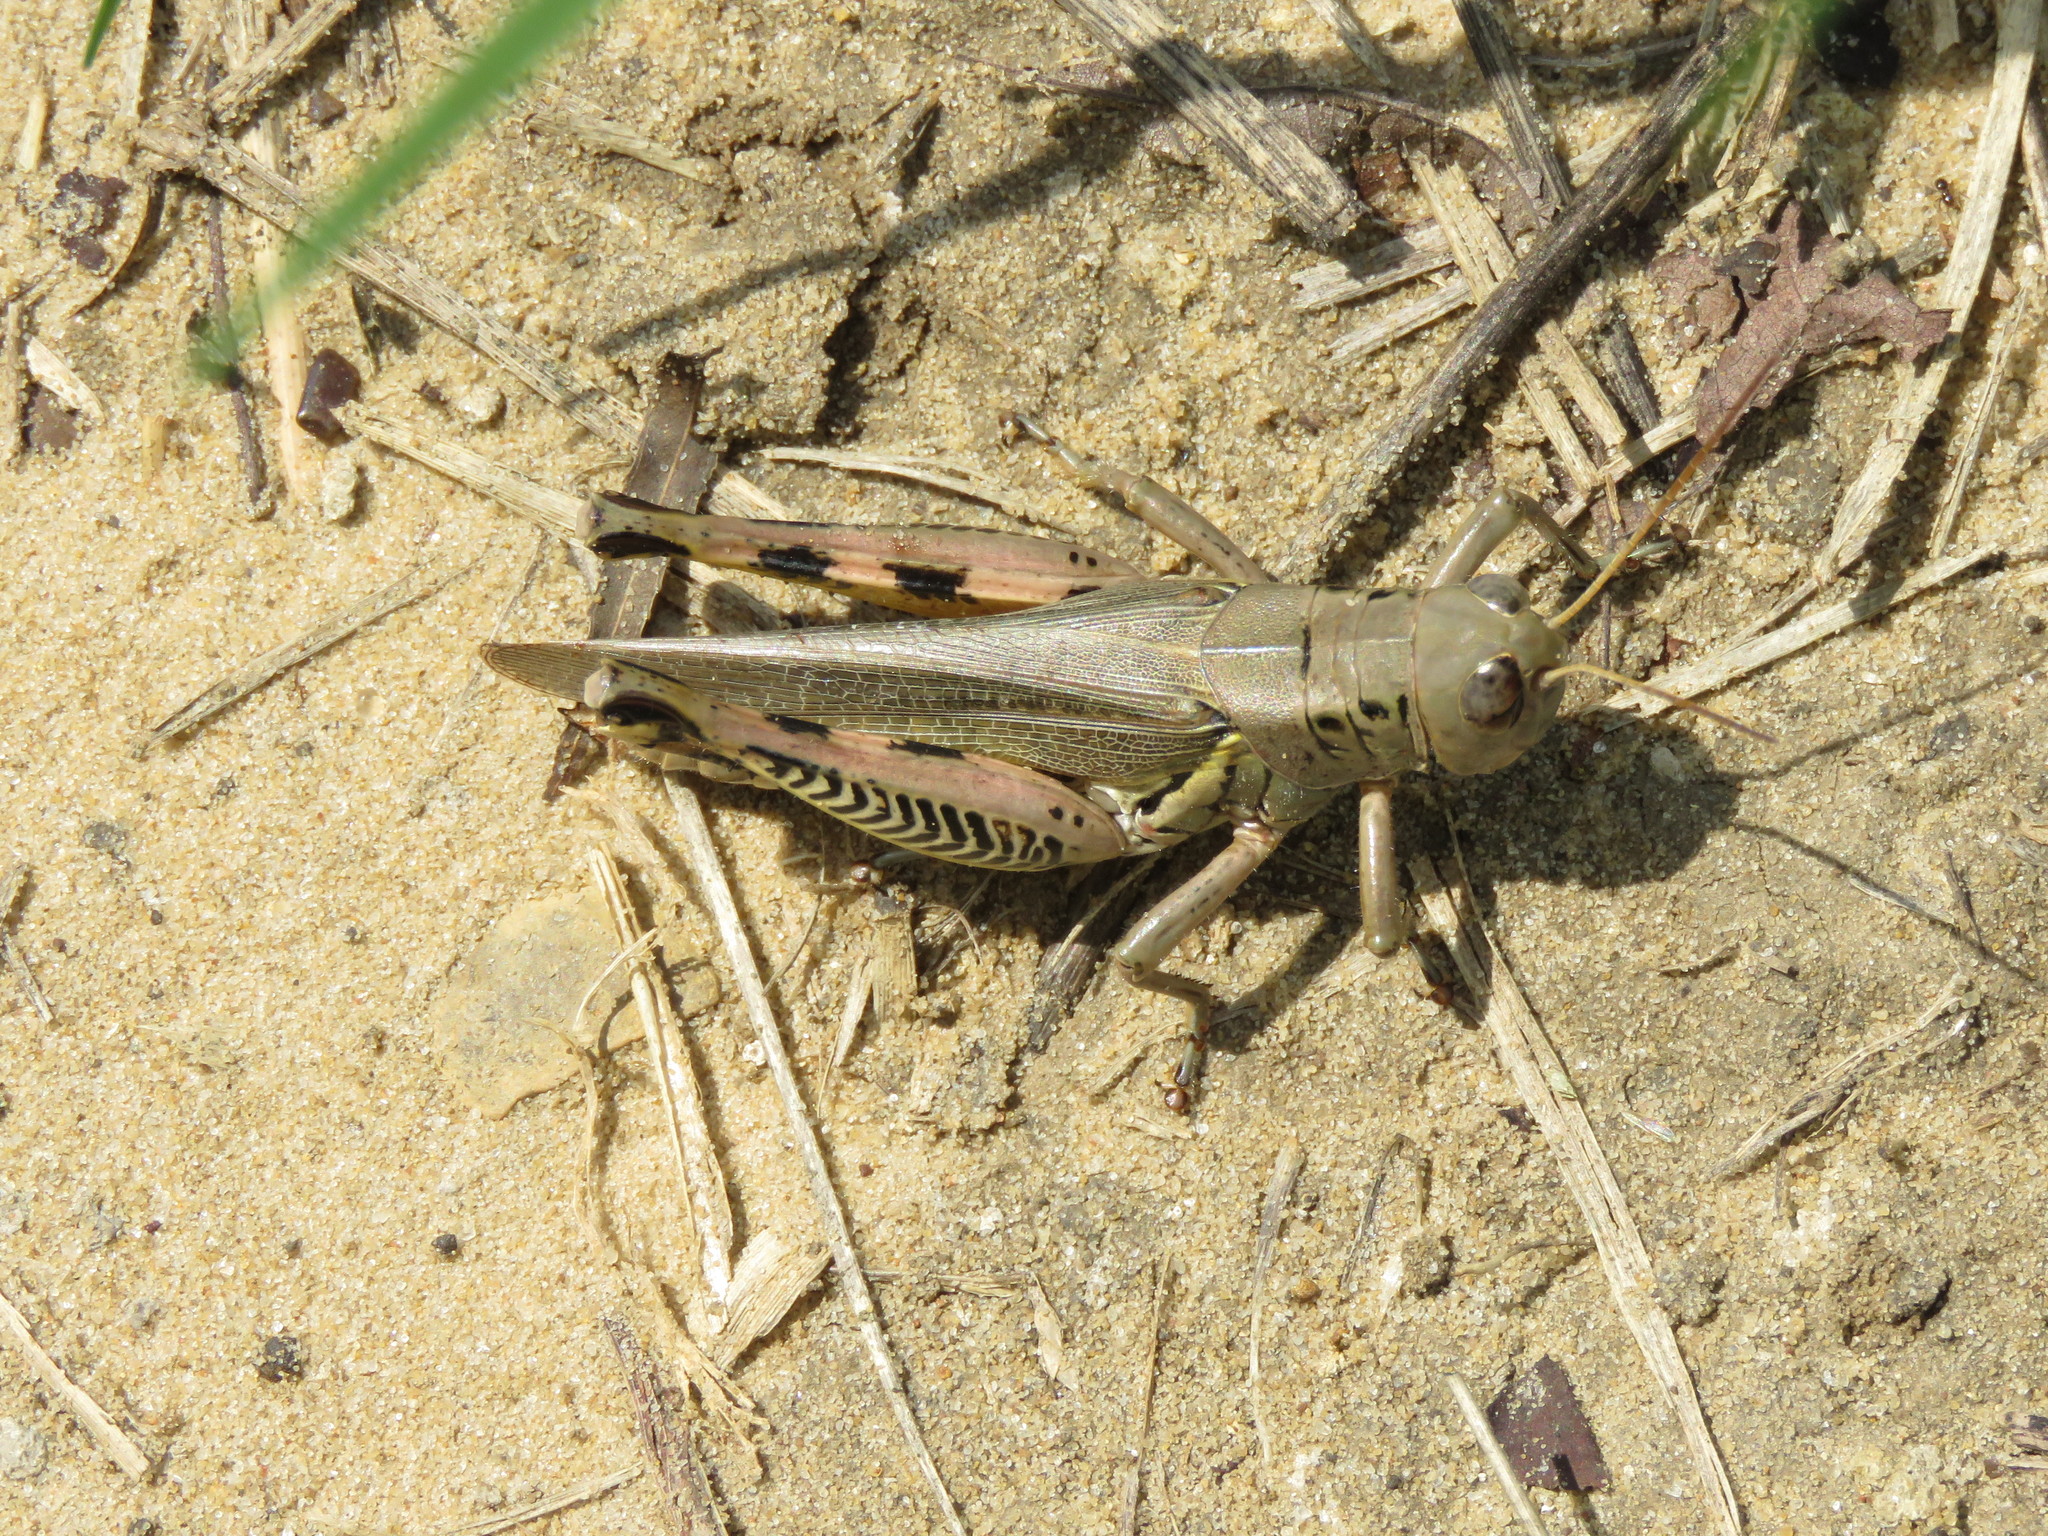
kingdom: Animalia
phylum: Arthropoda
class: Insecta
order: Orthoptera
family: Acrididae
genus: Melanoplus
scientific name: Melanoplus differentialis
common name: Differential grasshopper
